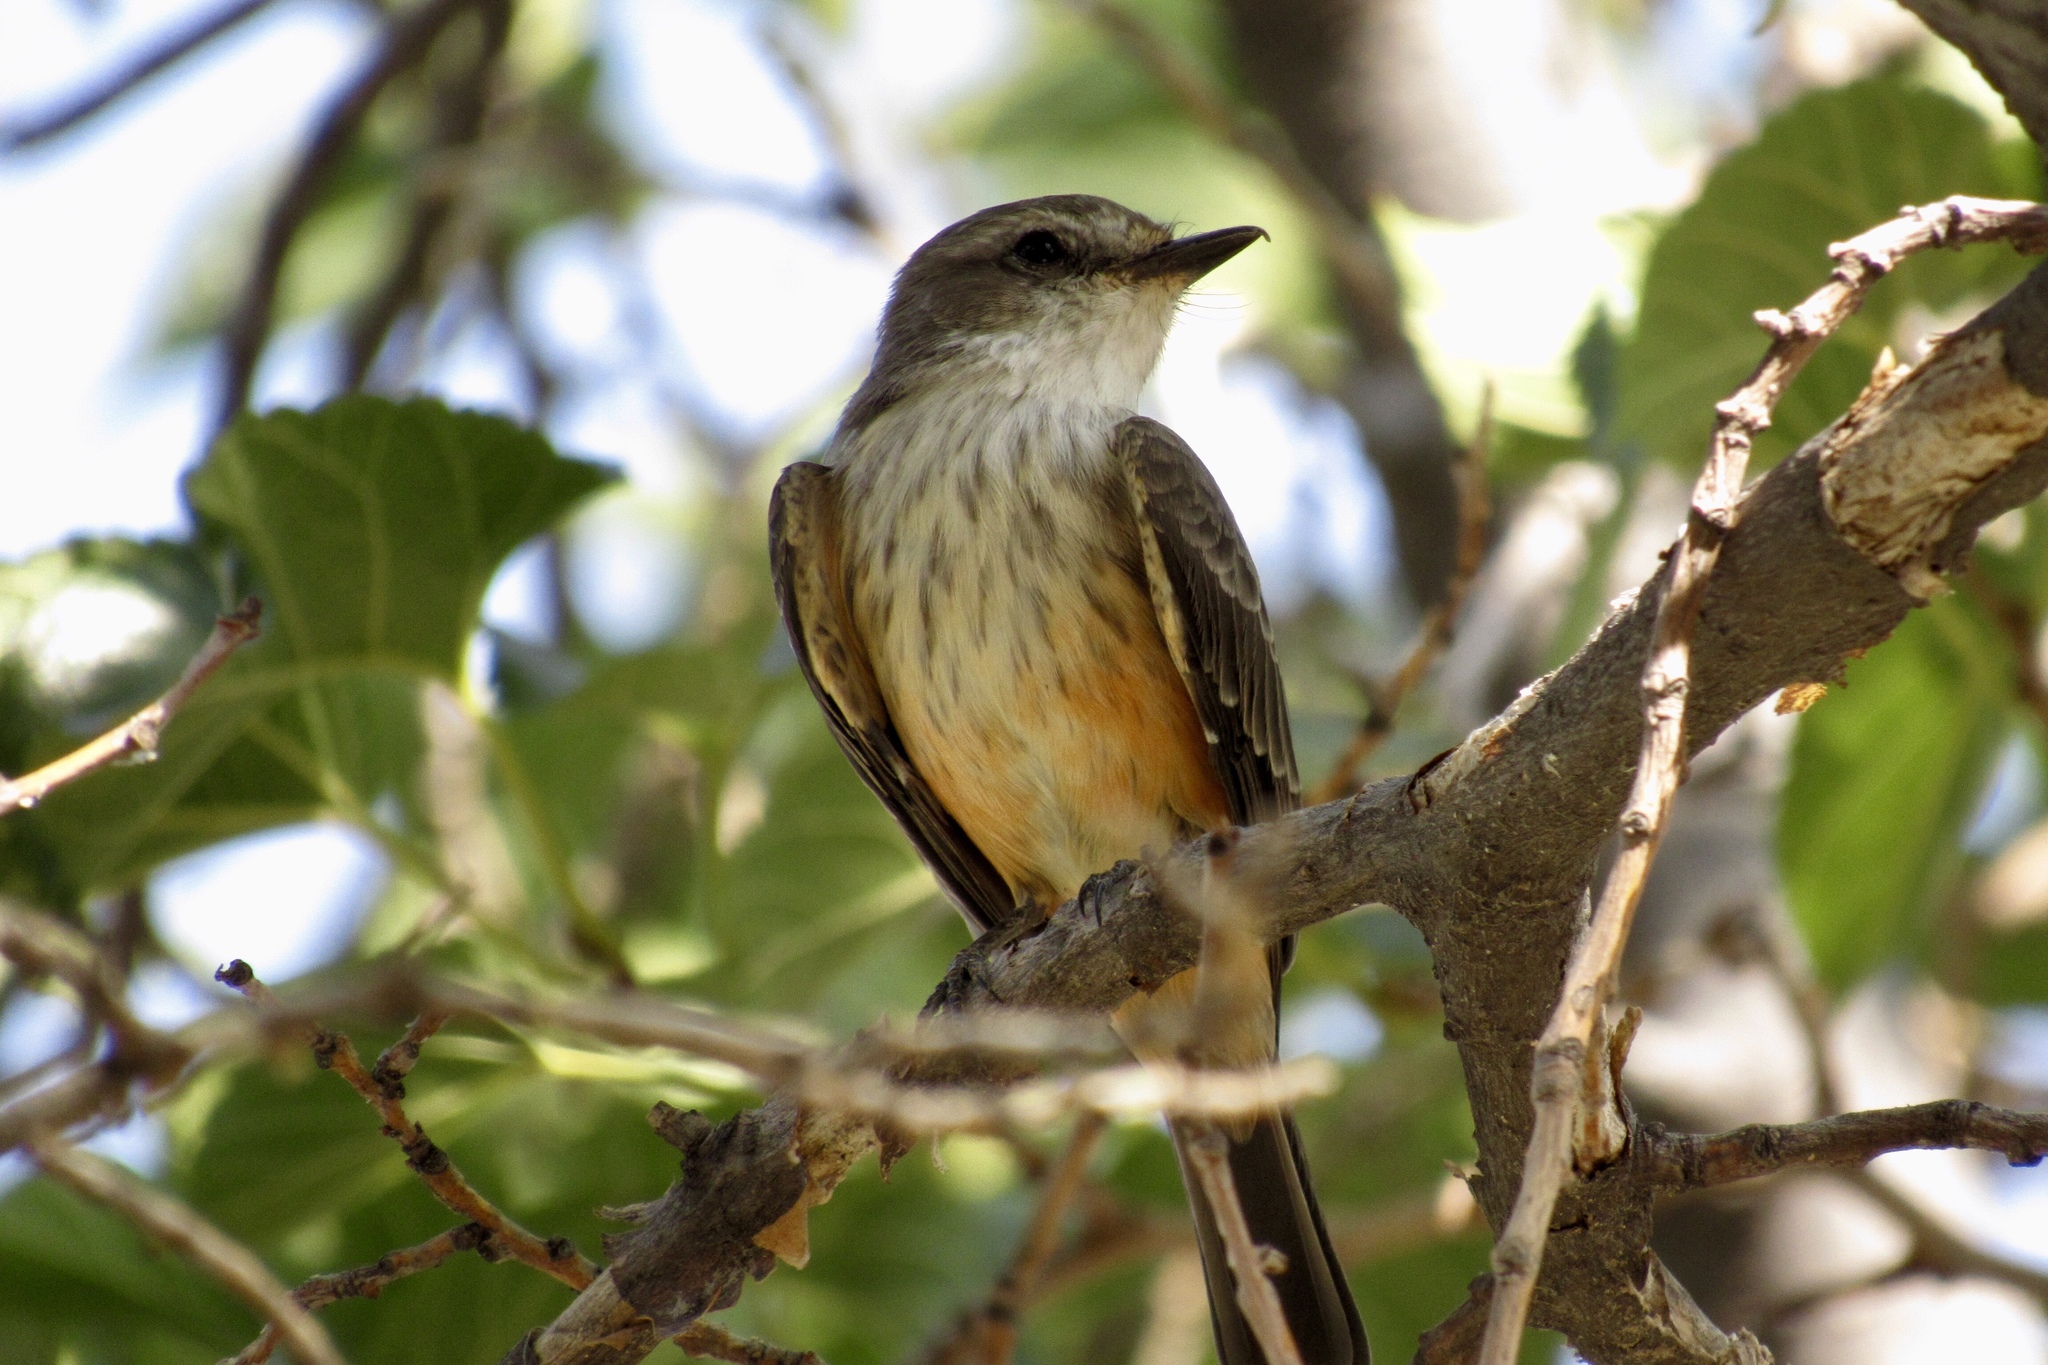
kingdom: Animalia
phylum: Chordata
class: Aves
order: Passeriformes
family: Tyrannidae
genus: Pyrocephalus
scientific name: Pyrocephalus rubinus
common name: Vermilion flycatcher
